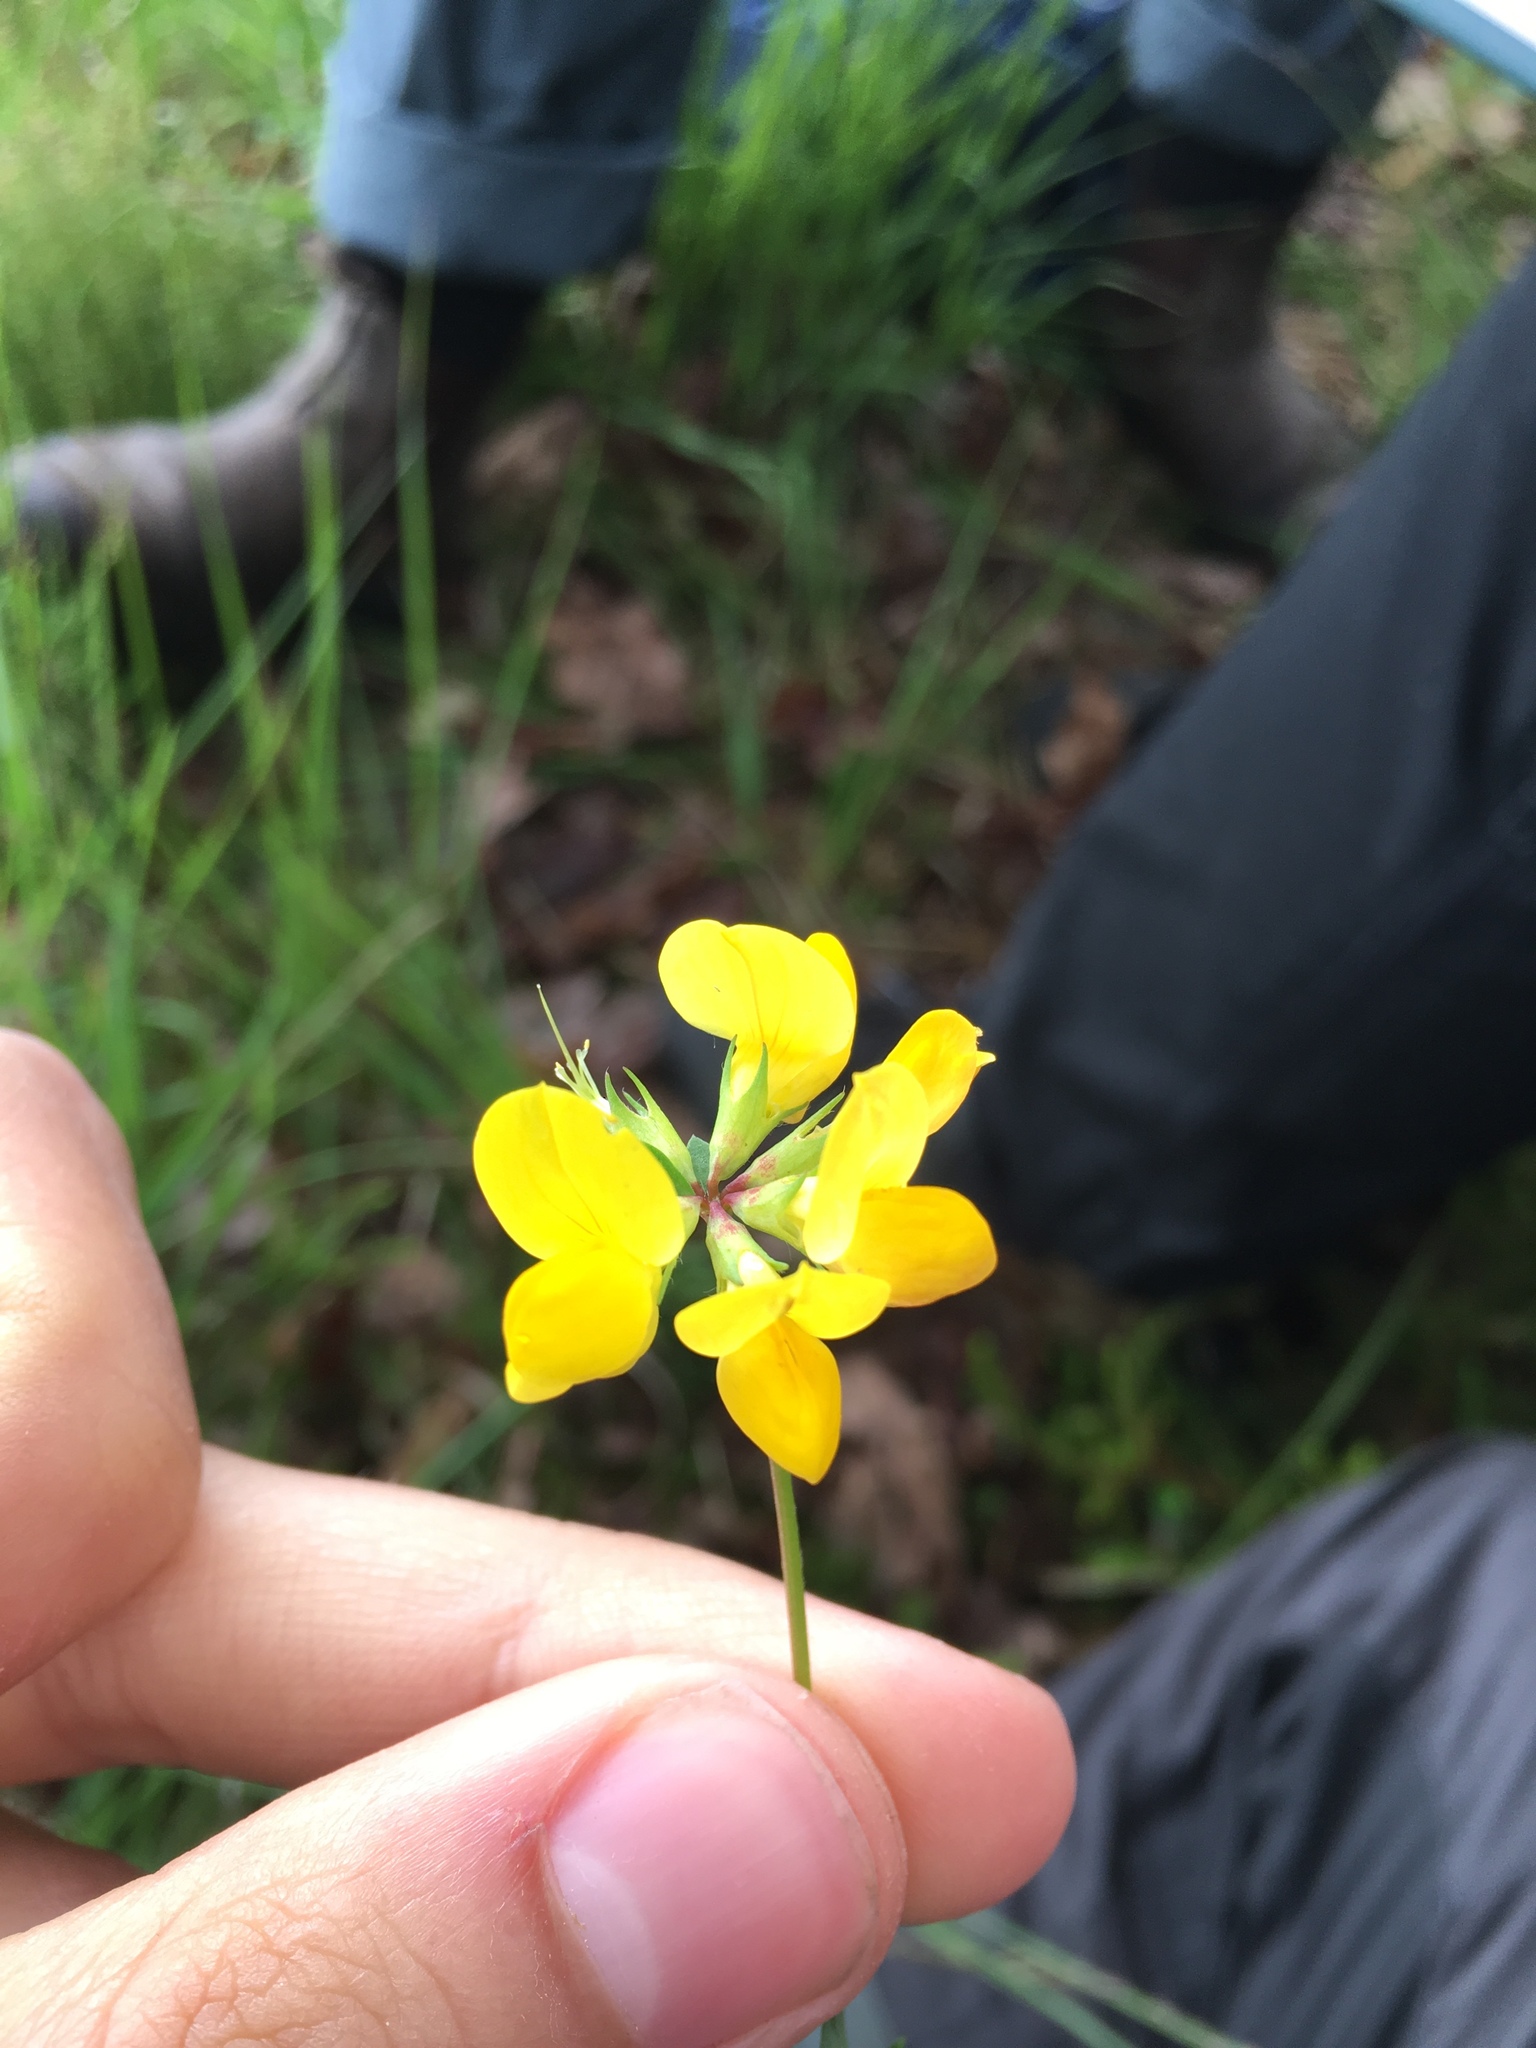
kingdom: Plantae
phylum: Tracheophyta
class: Magnoliopsida
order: Fabales
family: Fabaceae
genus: Lotus
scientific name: Lotus corniculatus
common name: Common bird's-foot-trefoil
